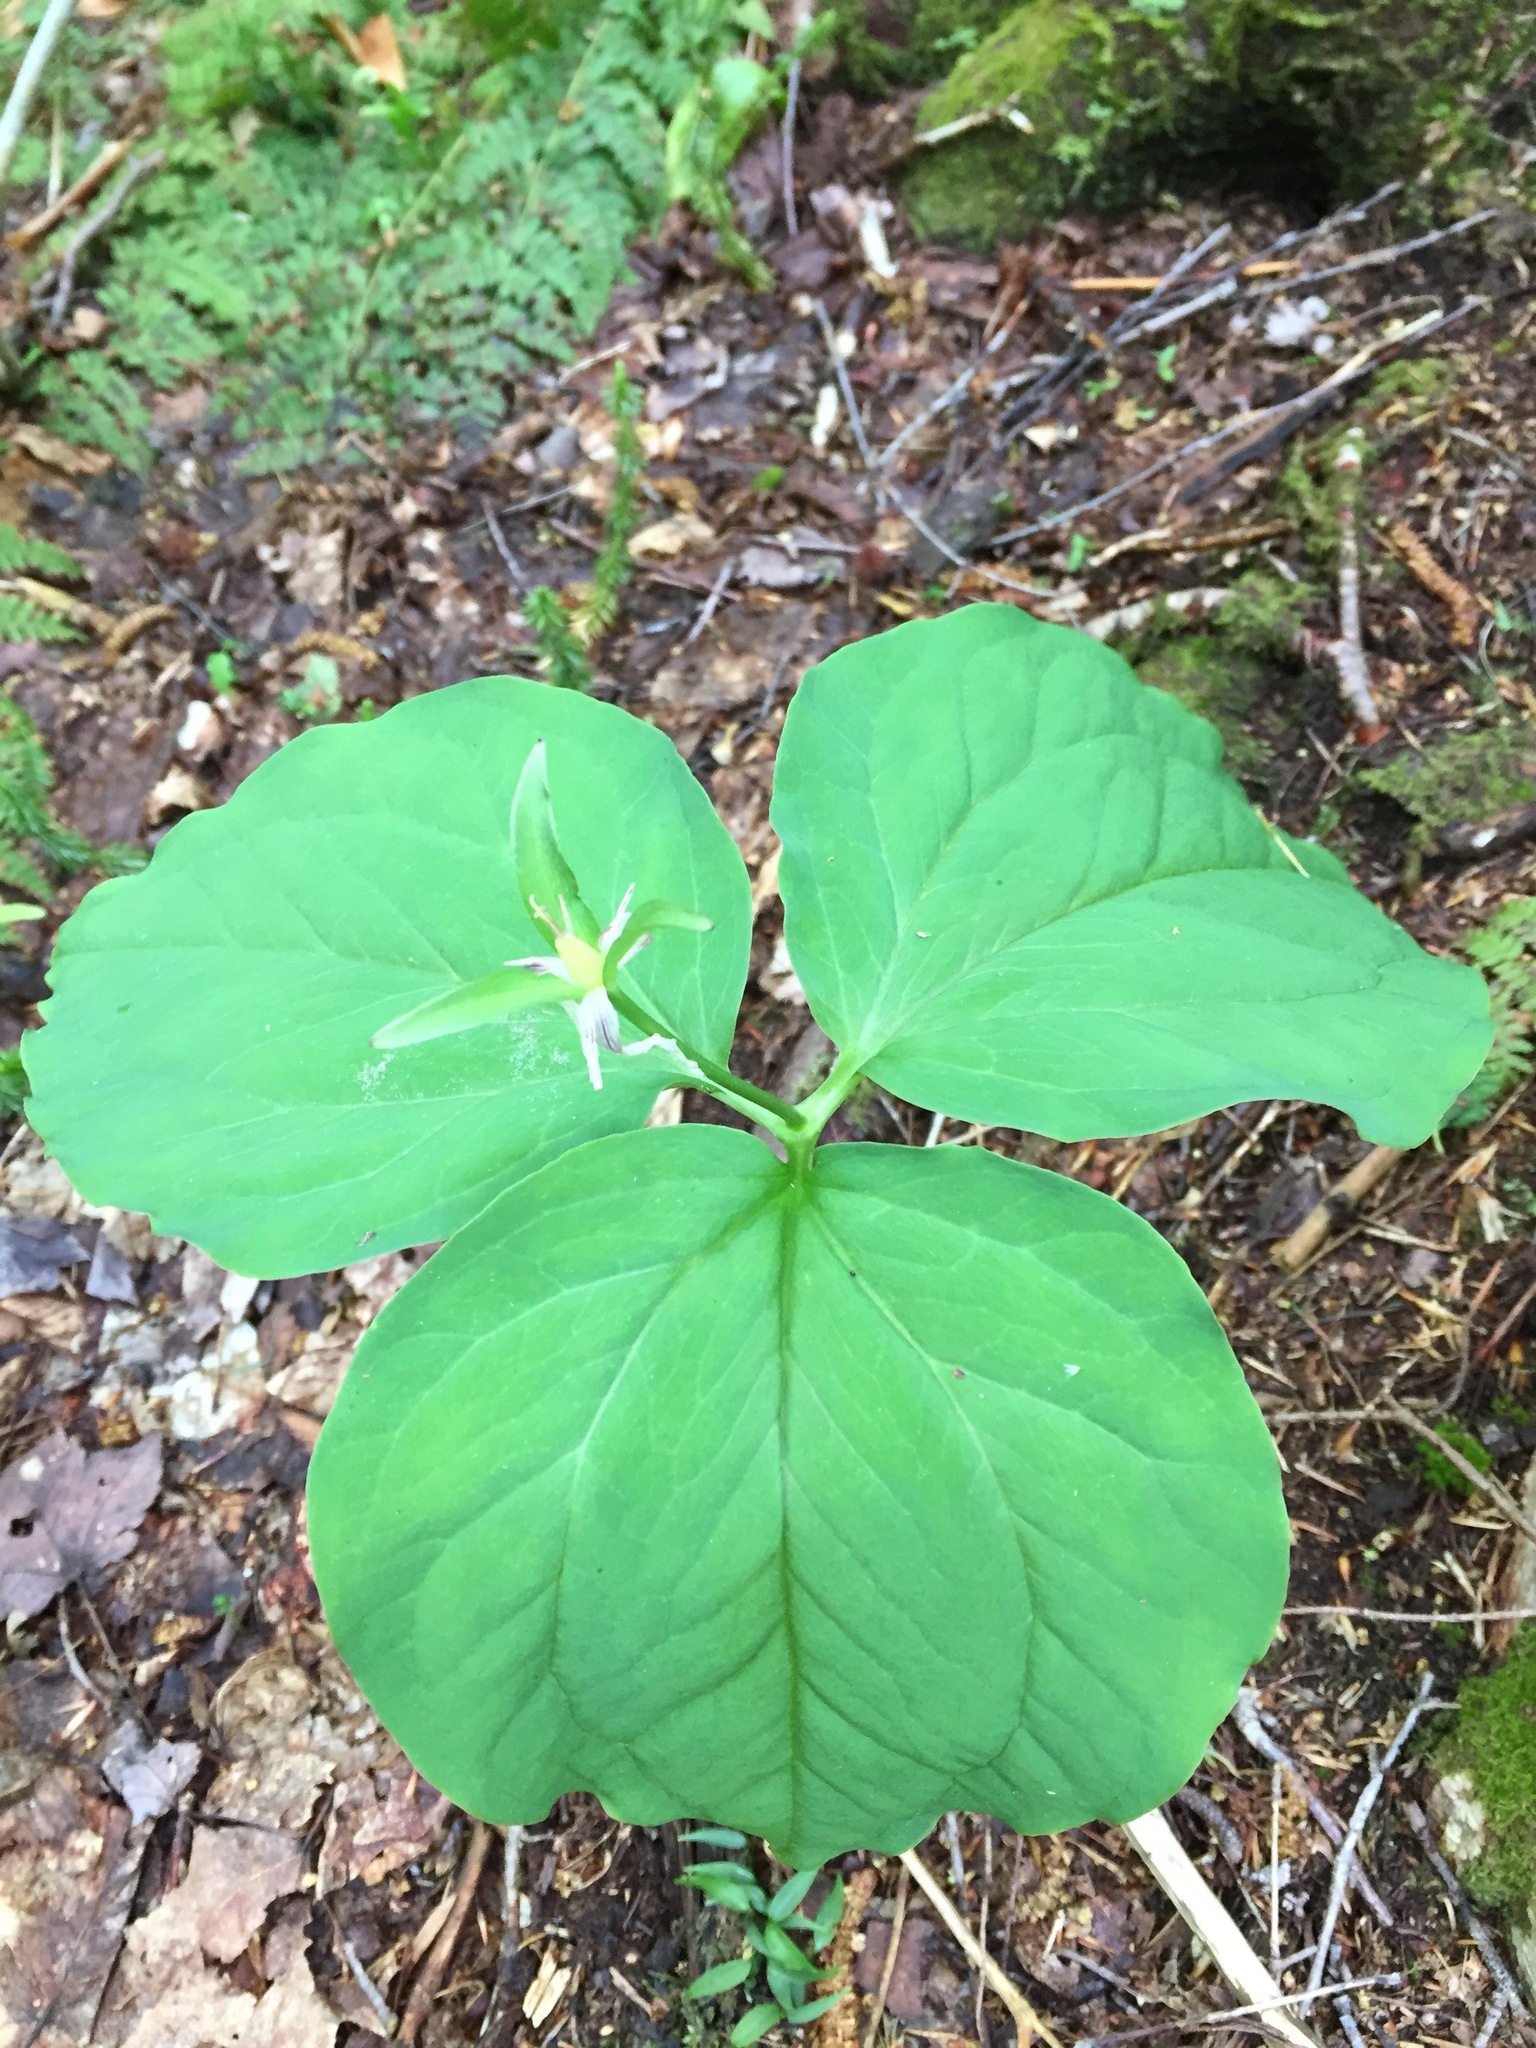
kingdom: Plantae
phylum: Tracheophyta
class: Liliopsida
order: Liliales
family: Melanthiaceae
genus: Trillium
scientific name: Trillium undulatum
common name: Paint trillium
